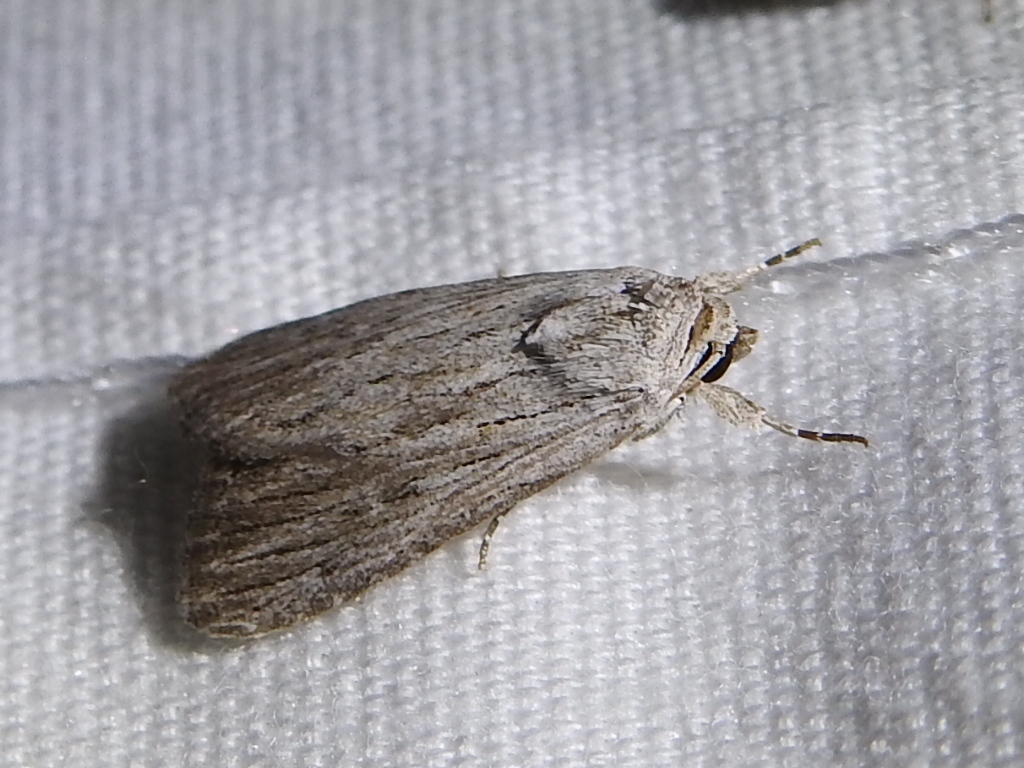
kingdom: Animalia
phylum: Arthropoda
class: Insecta
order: Lepidoptera
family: Noctuidae
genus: Catabena
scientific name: Catabena lineolata
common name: Fine-lined sallow
